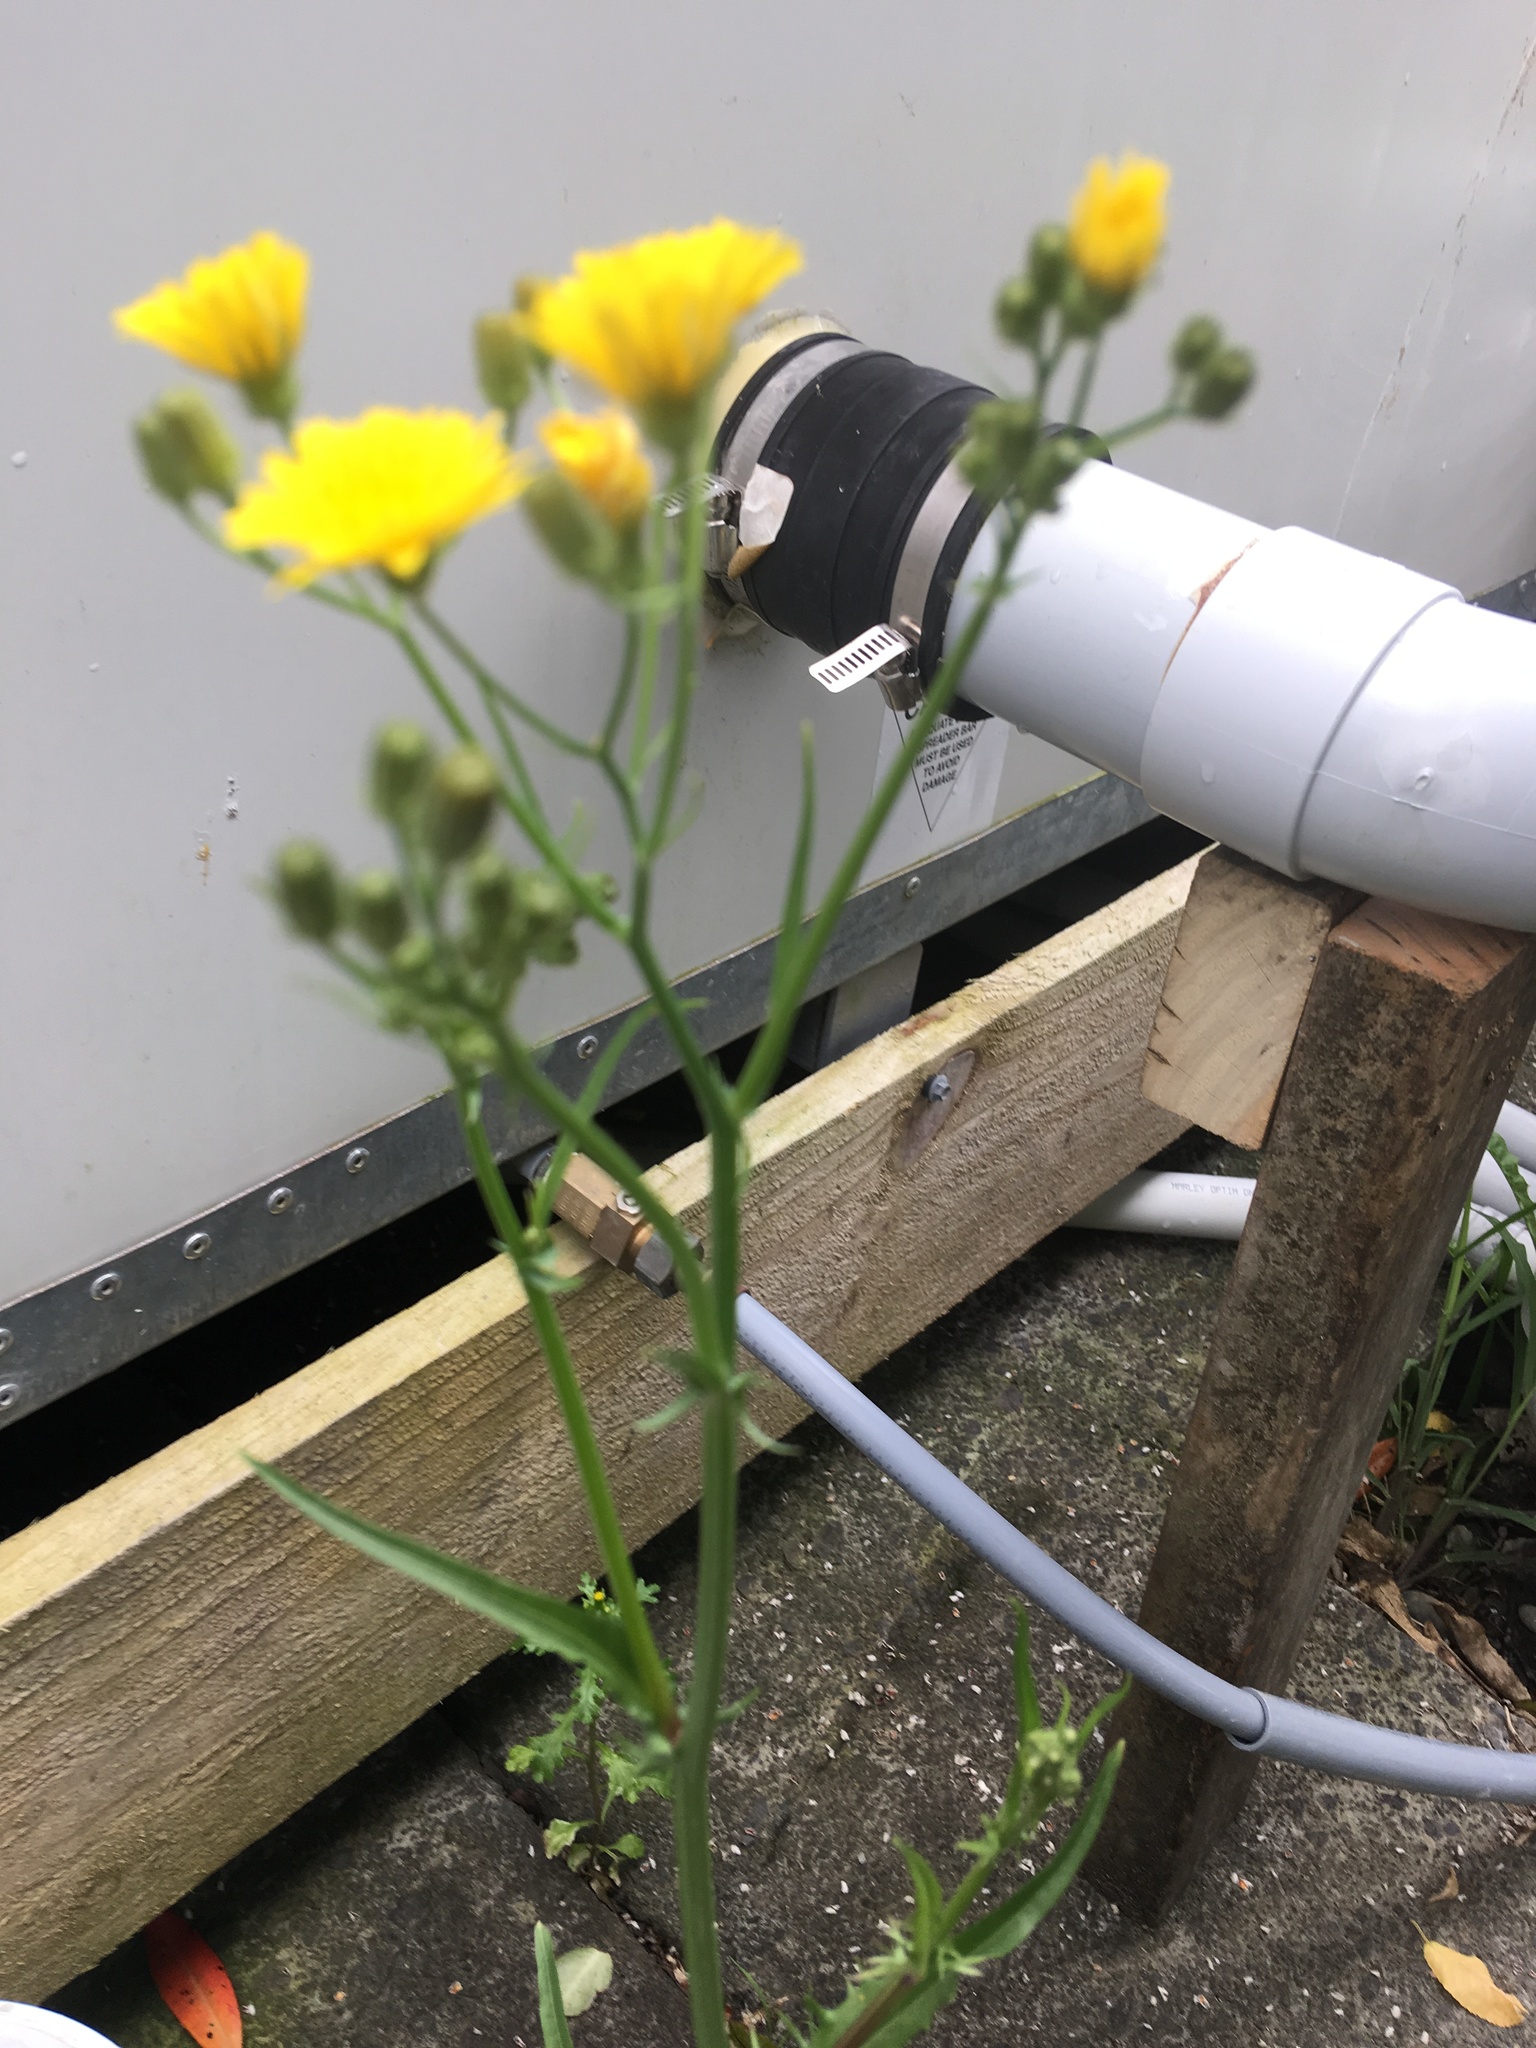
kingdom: Plantae
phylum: Tracheophyta
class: Magnoliopsida
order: Asterales
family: Asteraceae
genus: Crepis
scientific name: Crepis capillaris
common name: Smooth hawksbeard
